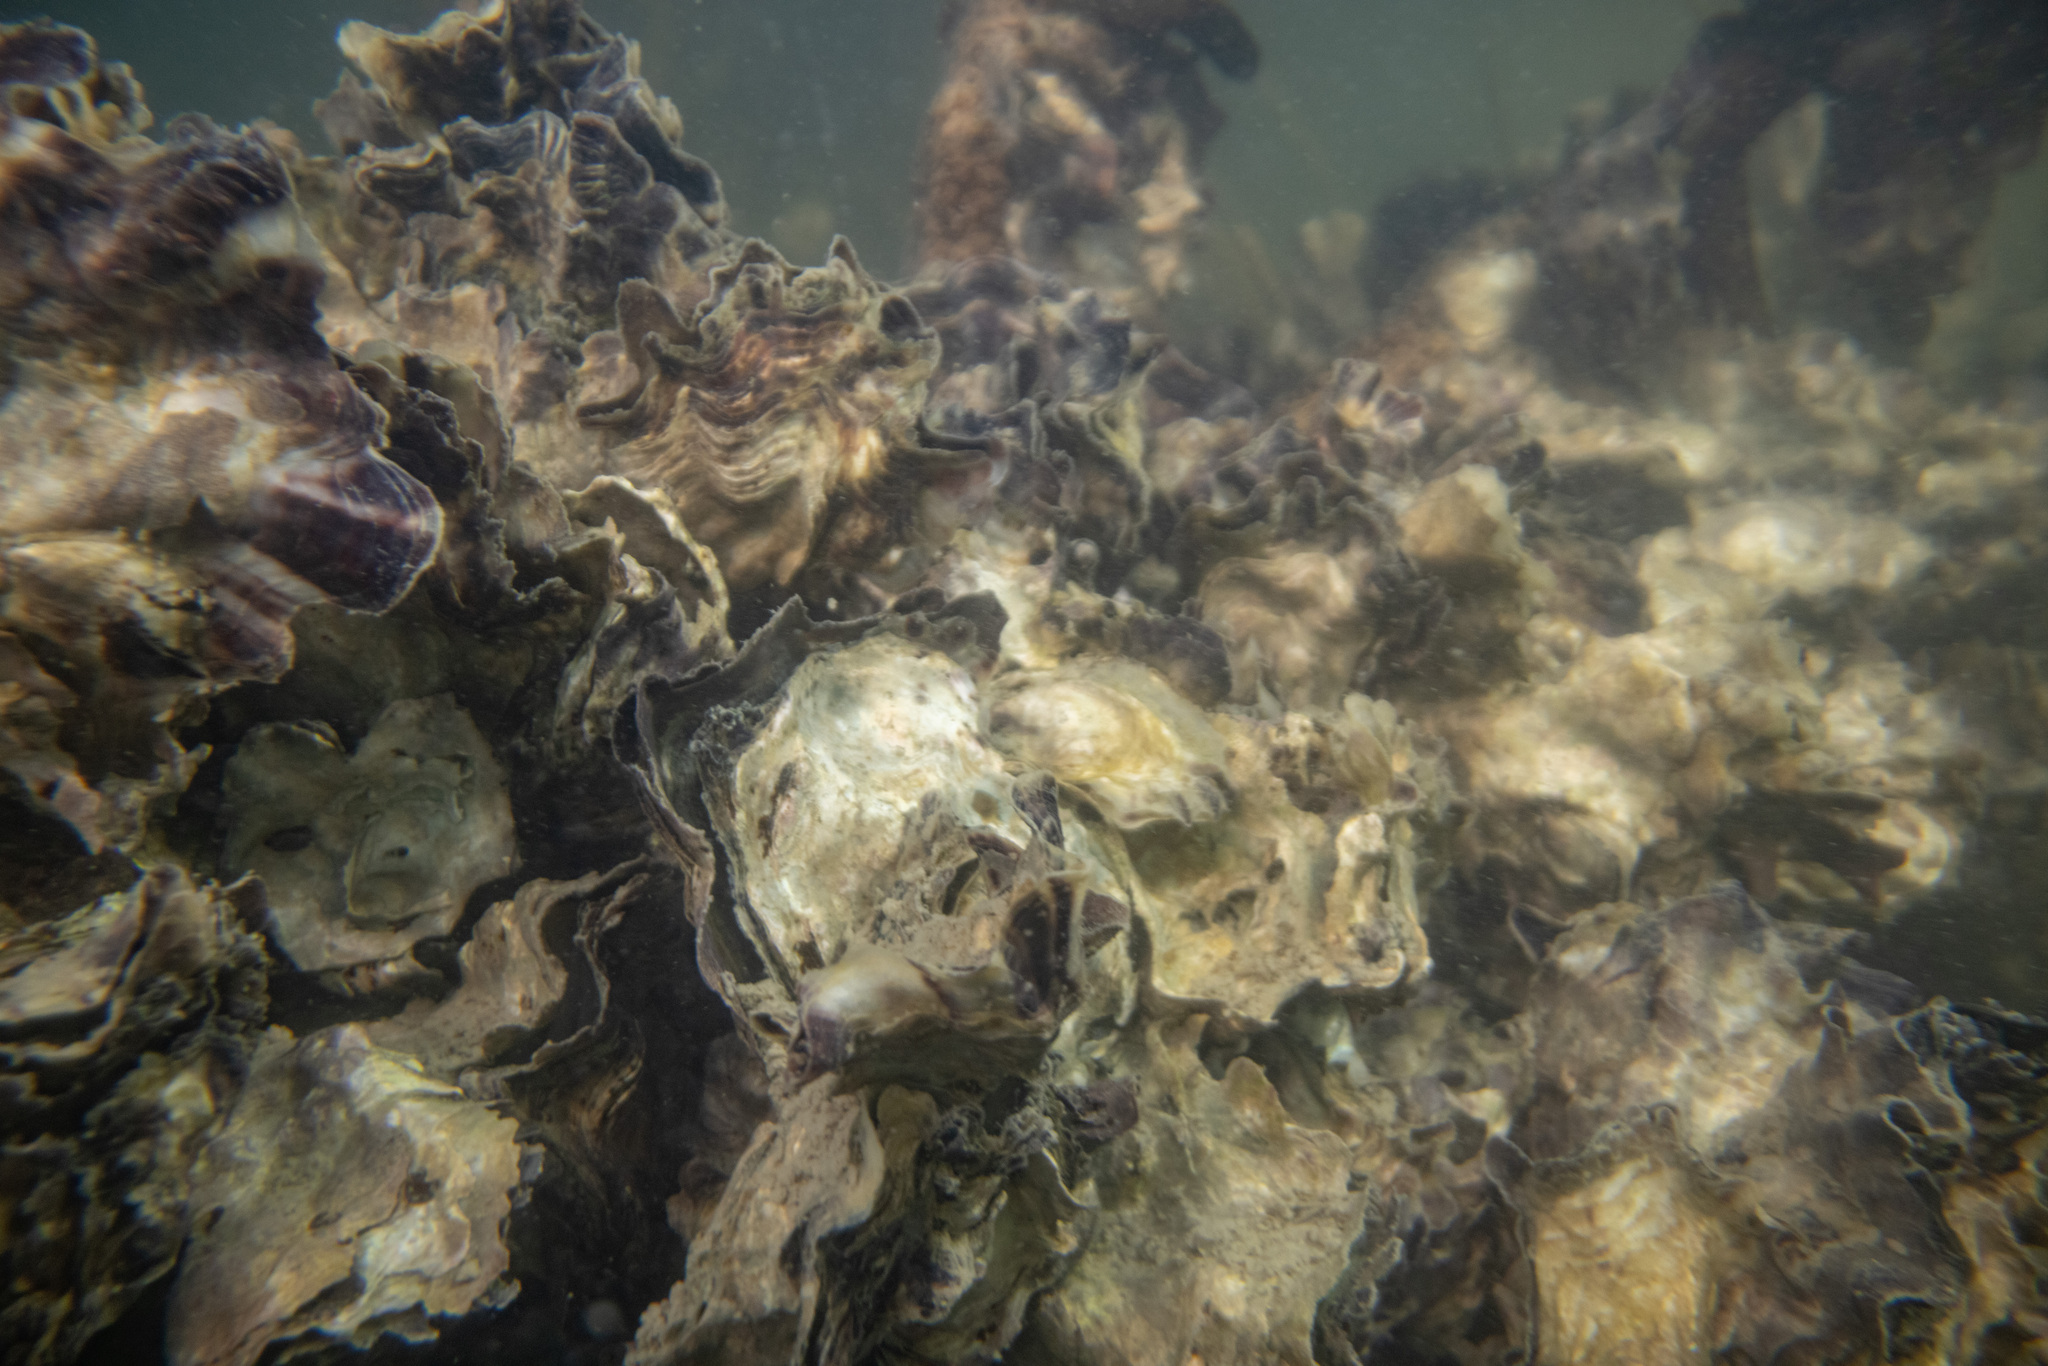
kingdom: Animalia
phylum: Mollusca
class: Bivalvia
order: Ostreida
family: Ostreidae
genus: Magallana
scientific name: Magallana gigas
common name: Pacific oyster
